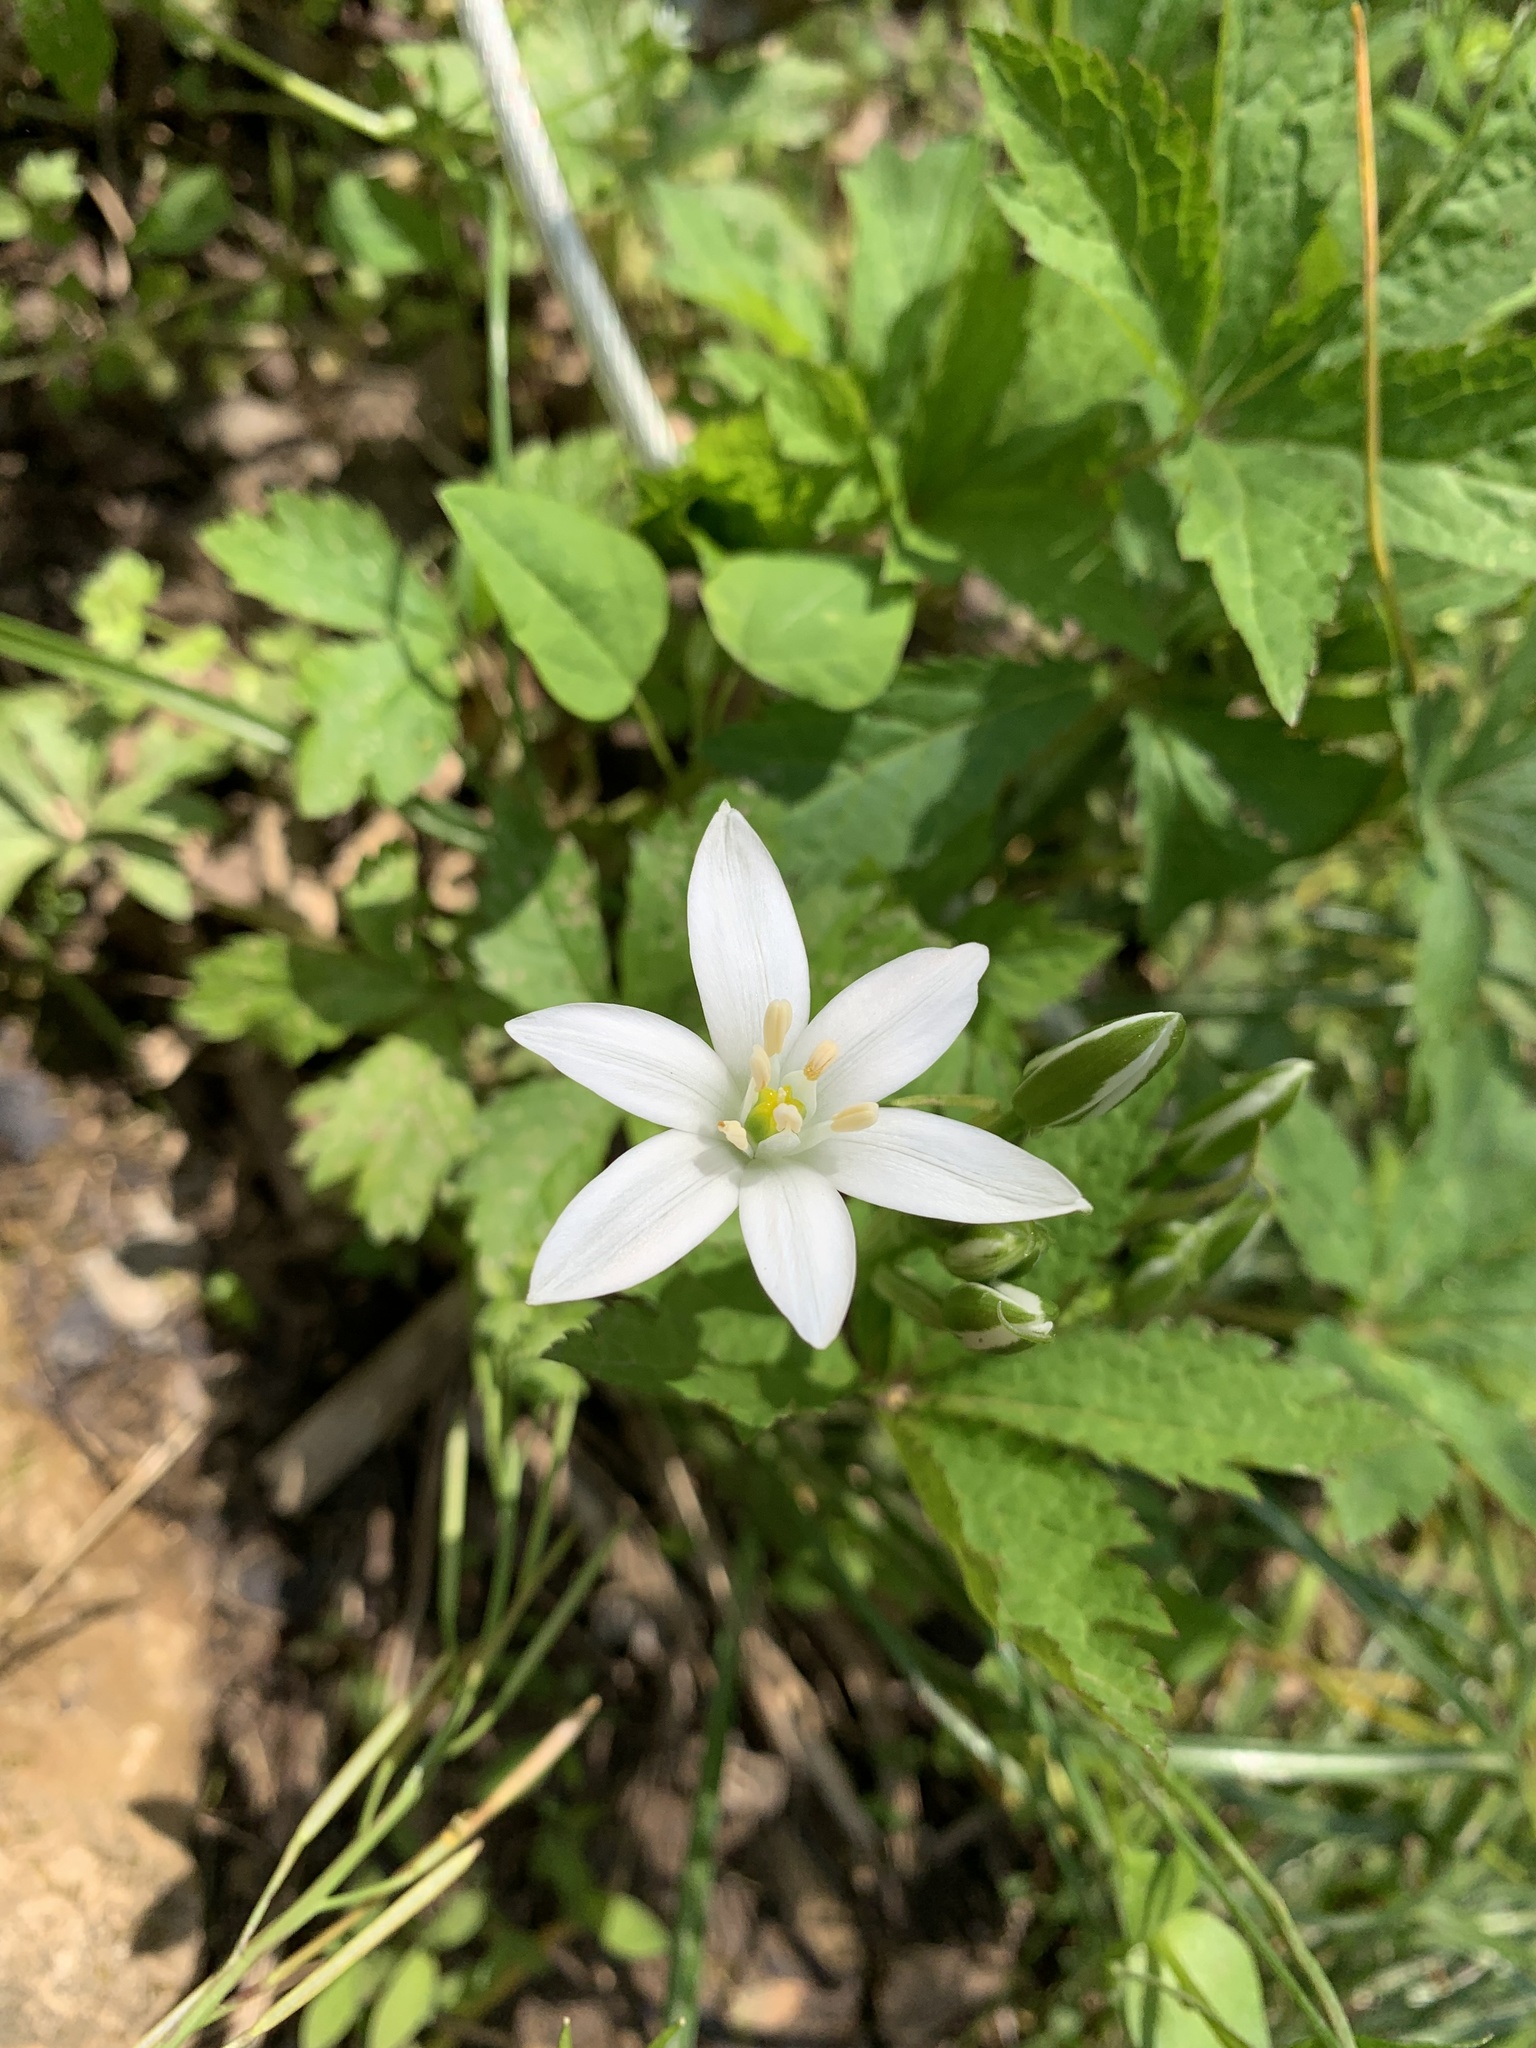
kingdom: Plantae
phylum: Tracheophyta
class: Liliopsida
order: Asparagales
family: Asparagaceae
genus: Ornithogalum
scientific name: Ornithogalum umbellatum
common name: Garden star-of-bethlehem
